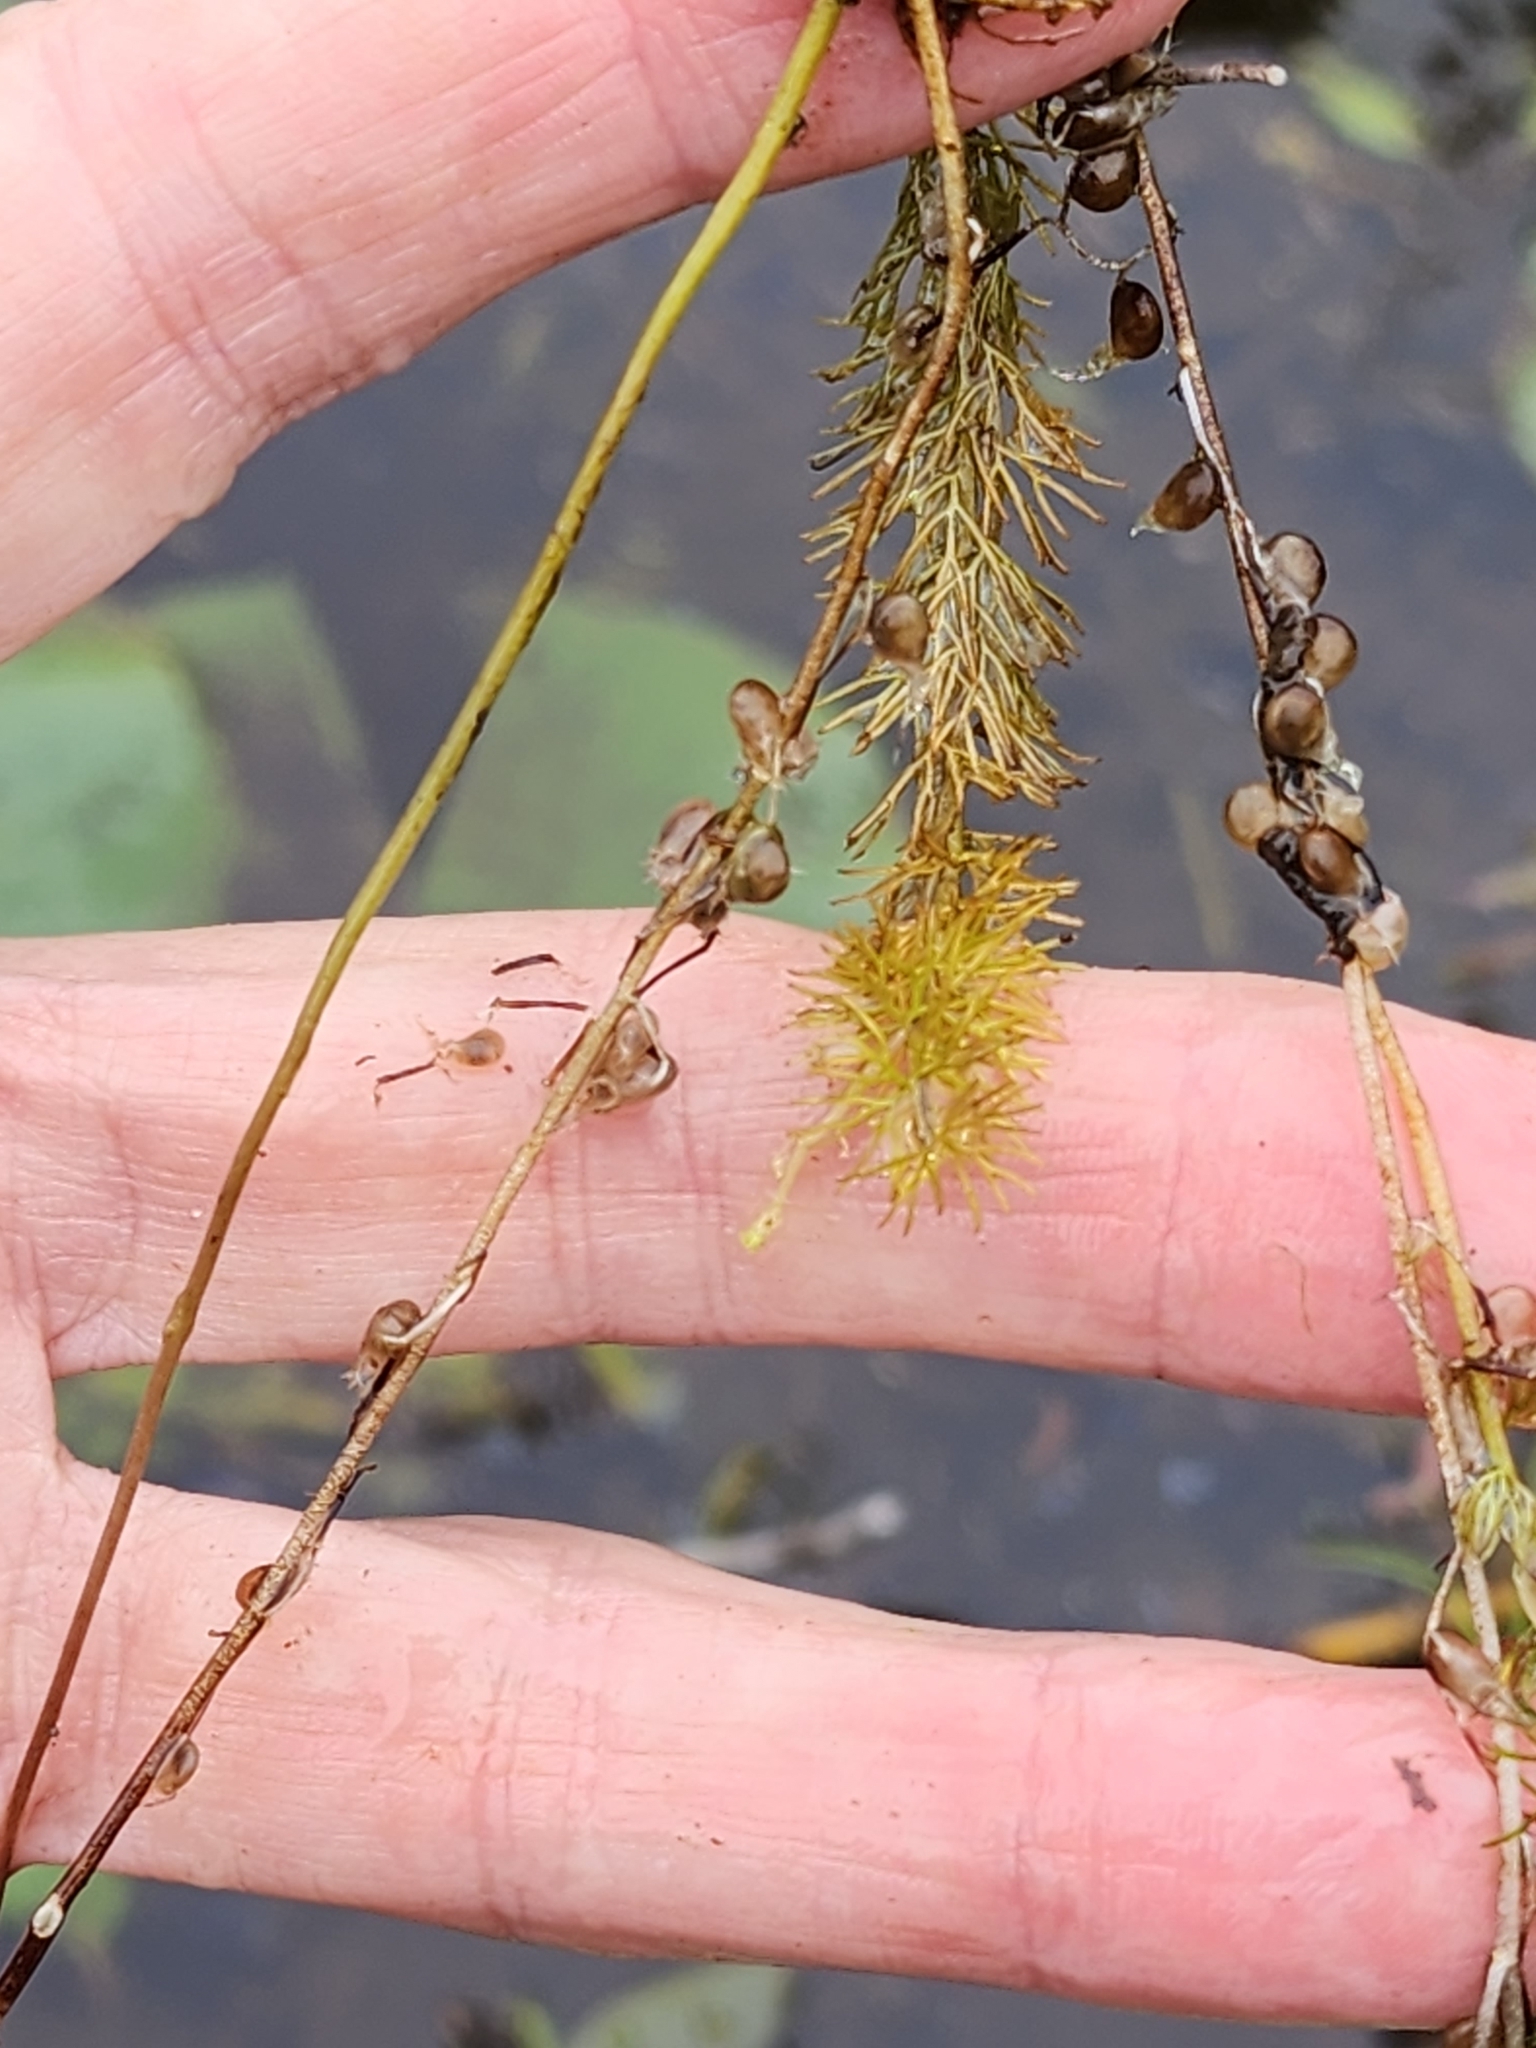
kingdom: Plantae
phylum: Tracheophyta
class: Magnoliopsida
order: Lamiales
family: Lentibulariaceae
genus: Utricularia
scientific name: Utricularia intermedia
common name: Intermediate bladderwort
